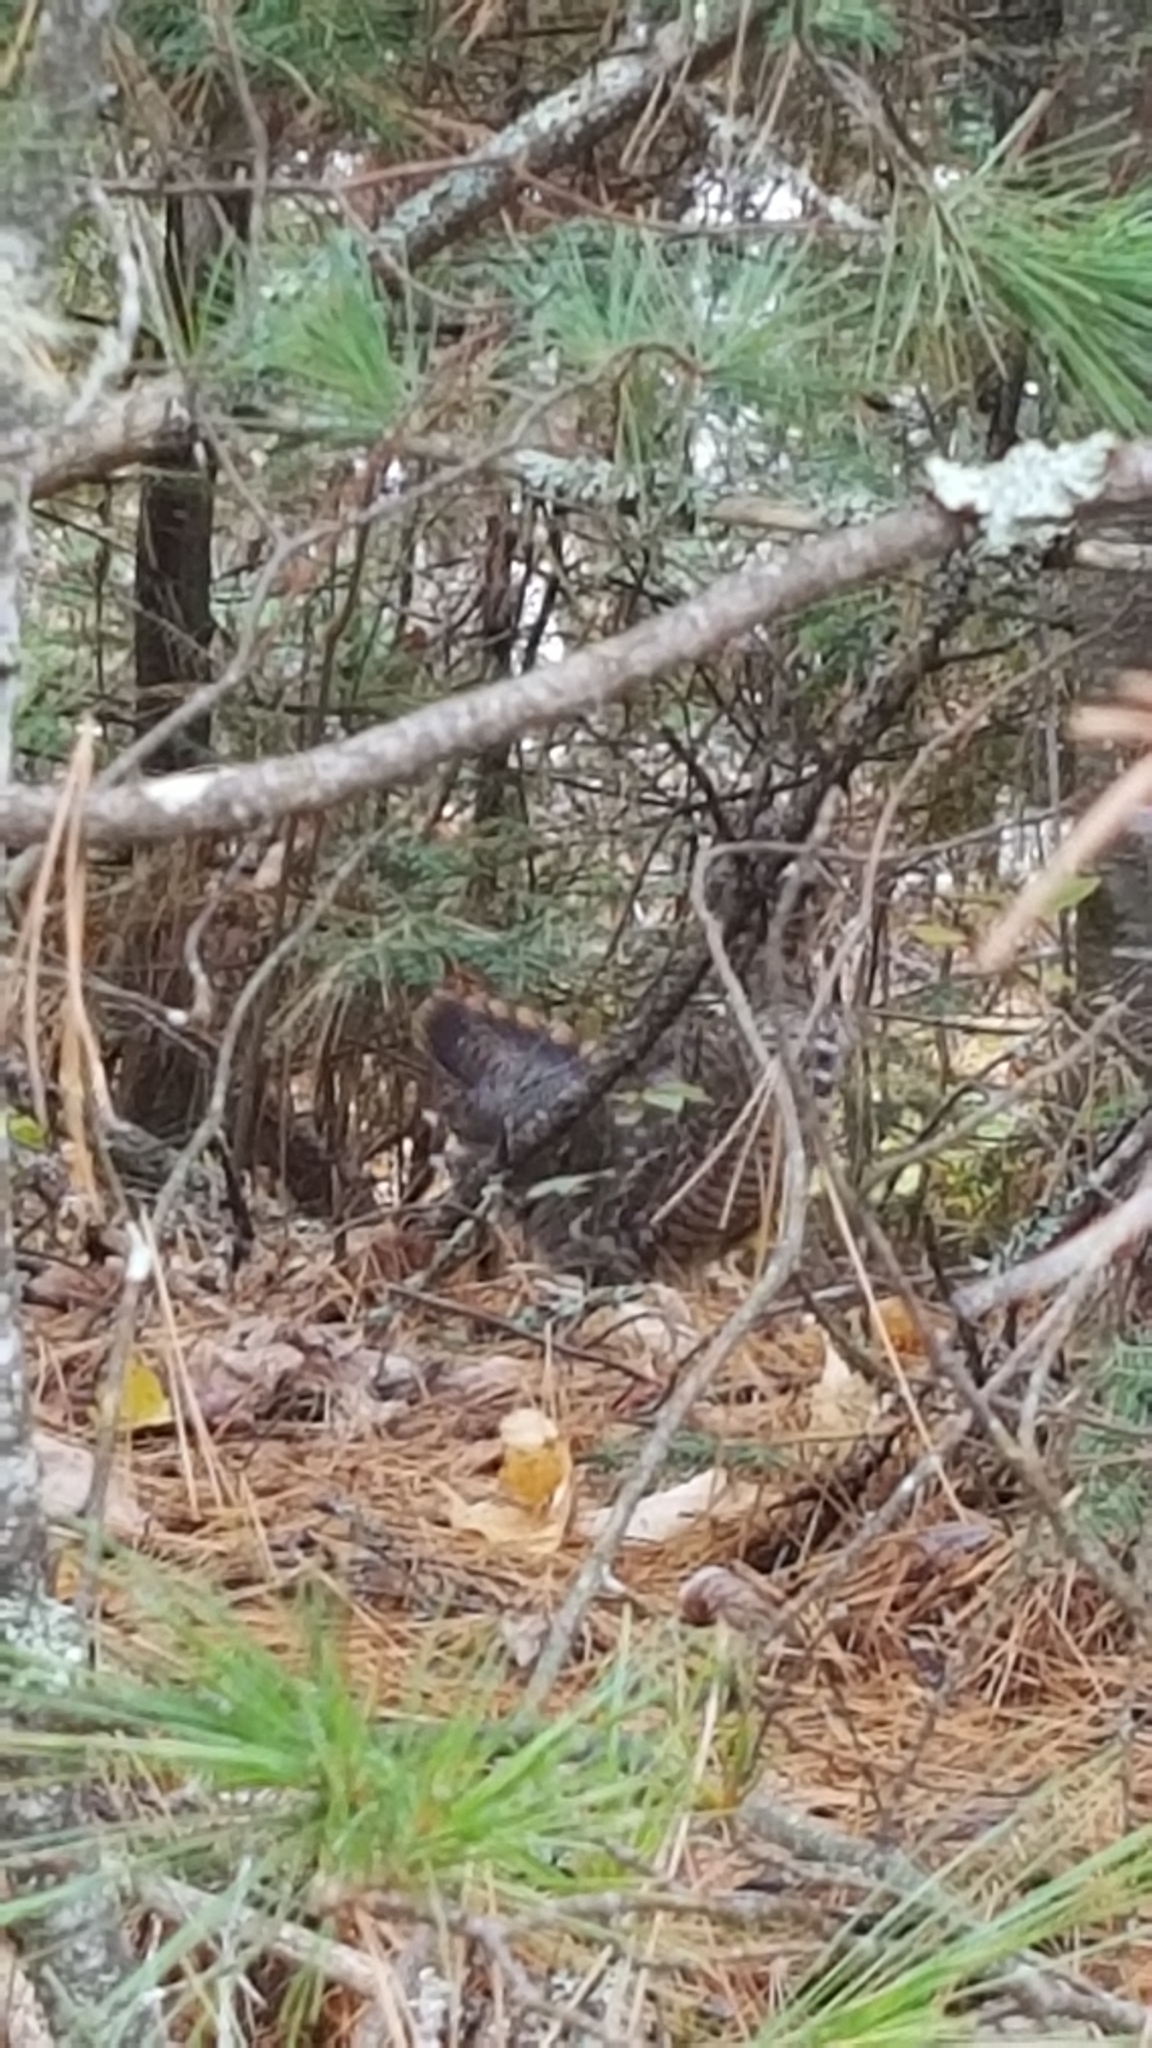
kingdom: Animalia
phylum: Chordata
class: Aves
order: Galliformes
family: Phasianidae
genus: Canachites
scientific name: Canachites canadensis
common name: Spruce grouse
